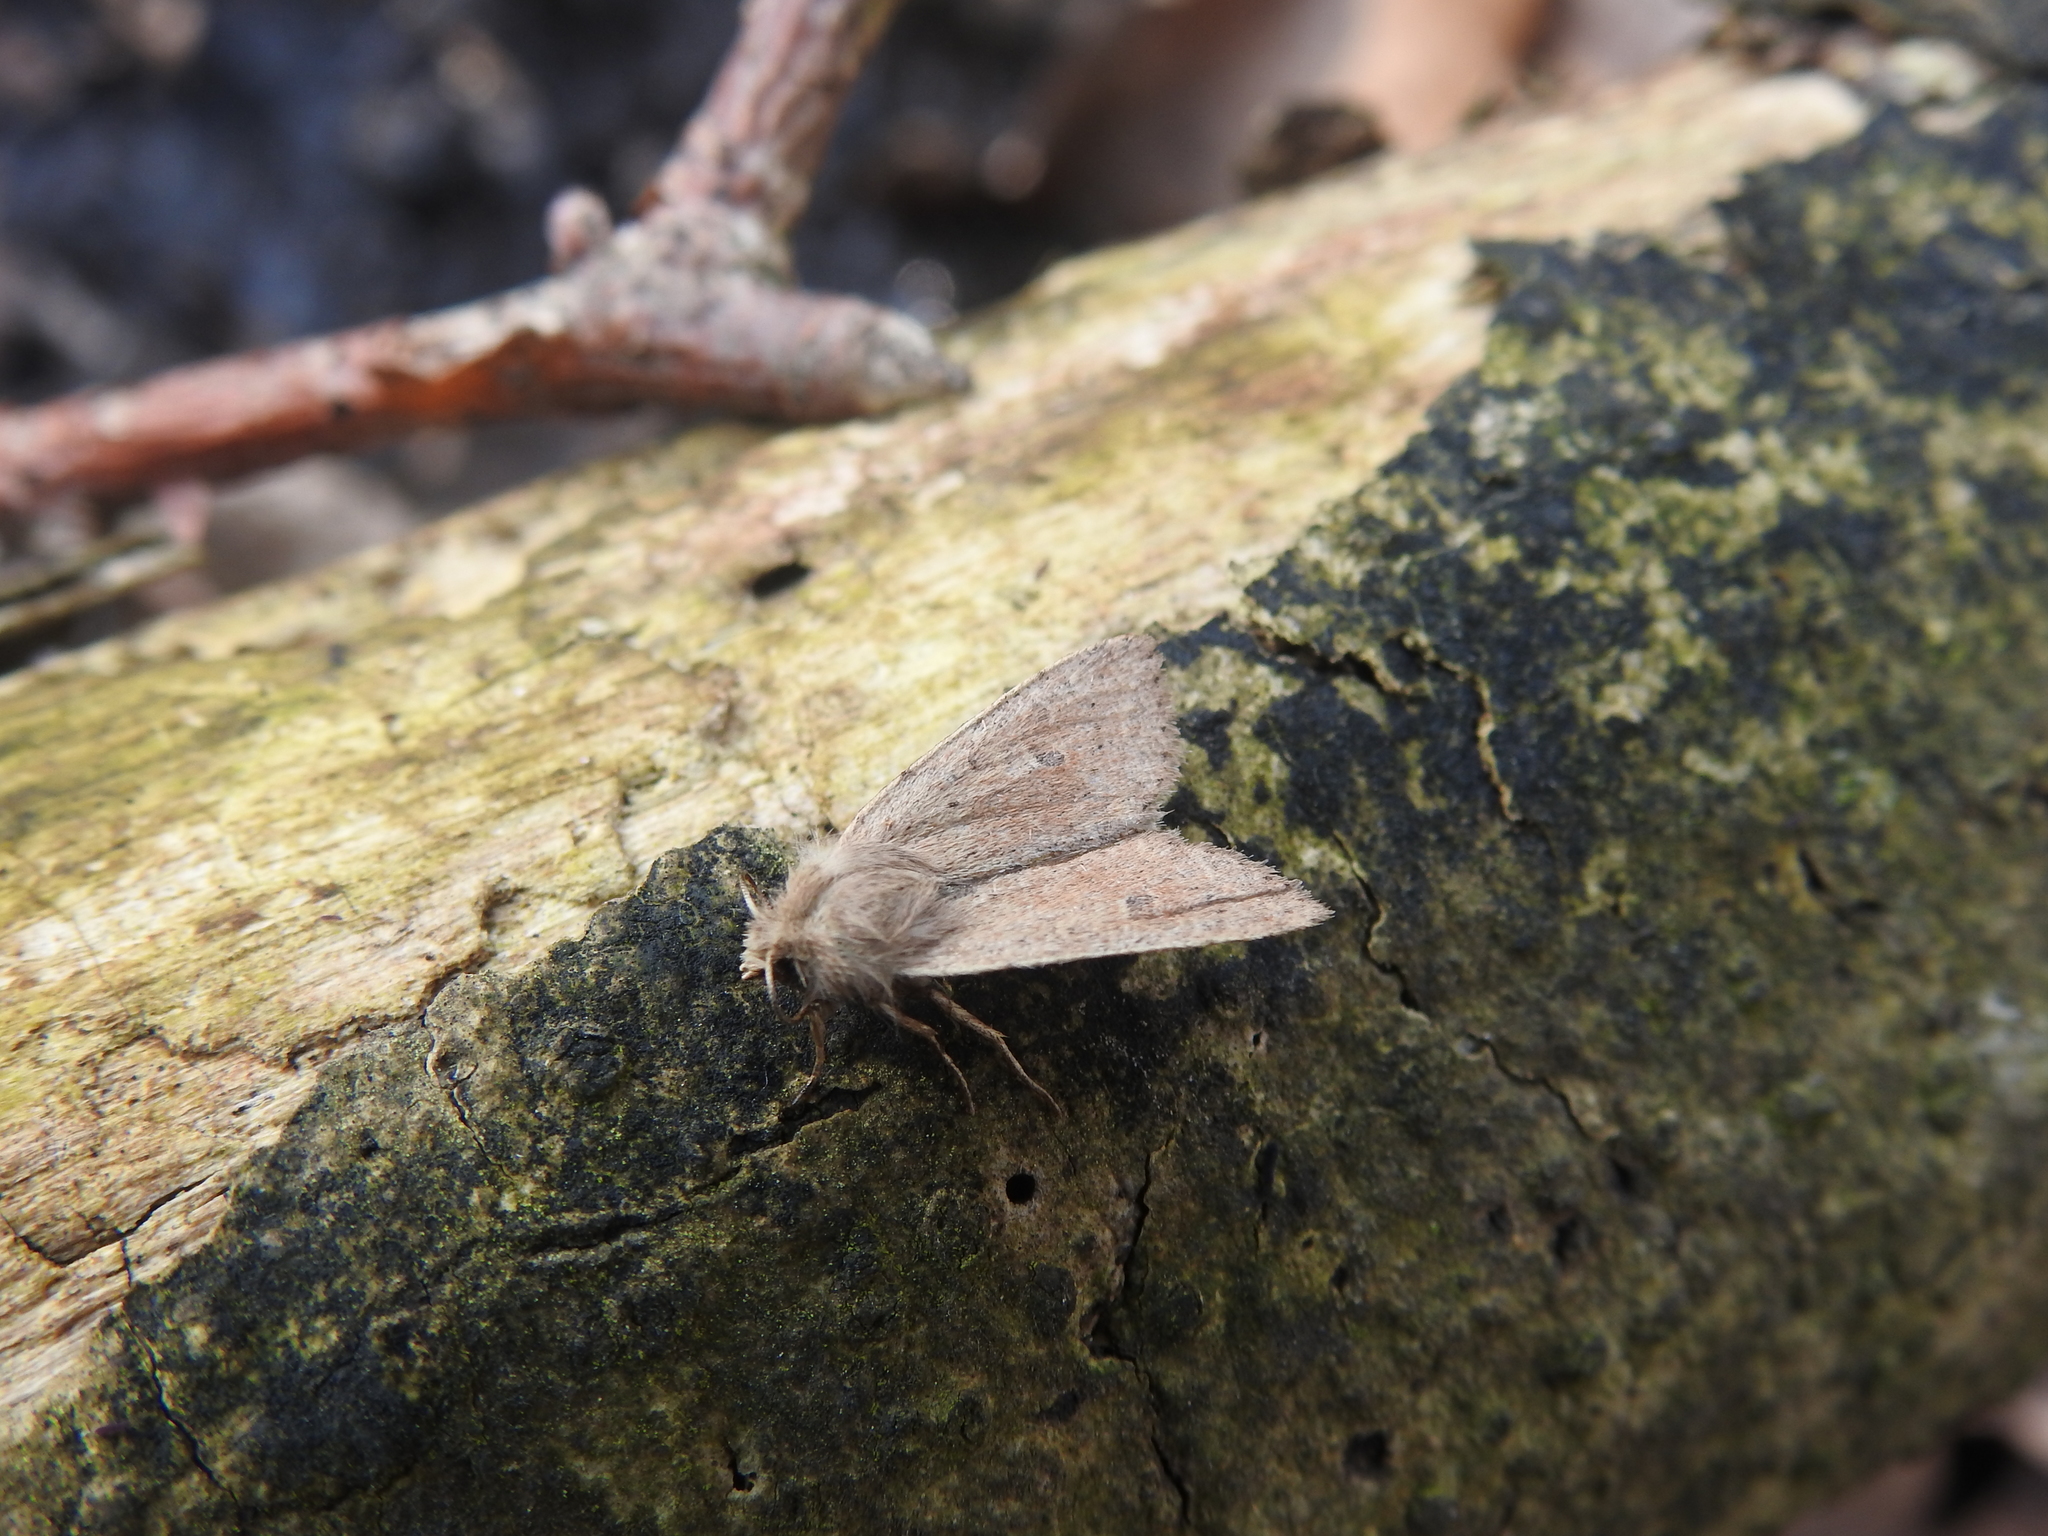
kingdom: Animalia
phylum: Arthropoda
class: Insecta
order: Lepidoptera
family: Noctuidae
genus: Orthosia
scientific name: Orthosia cruda
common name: Small quaker
